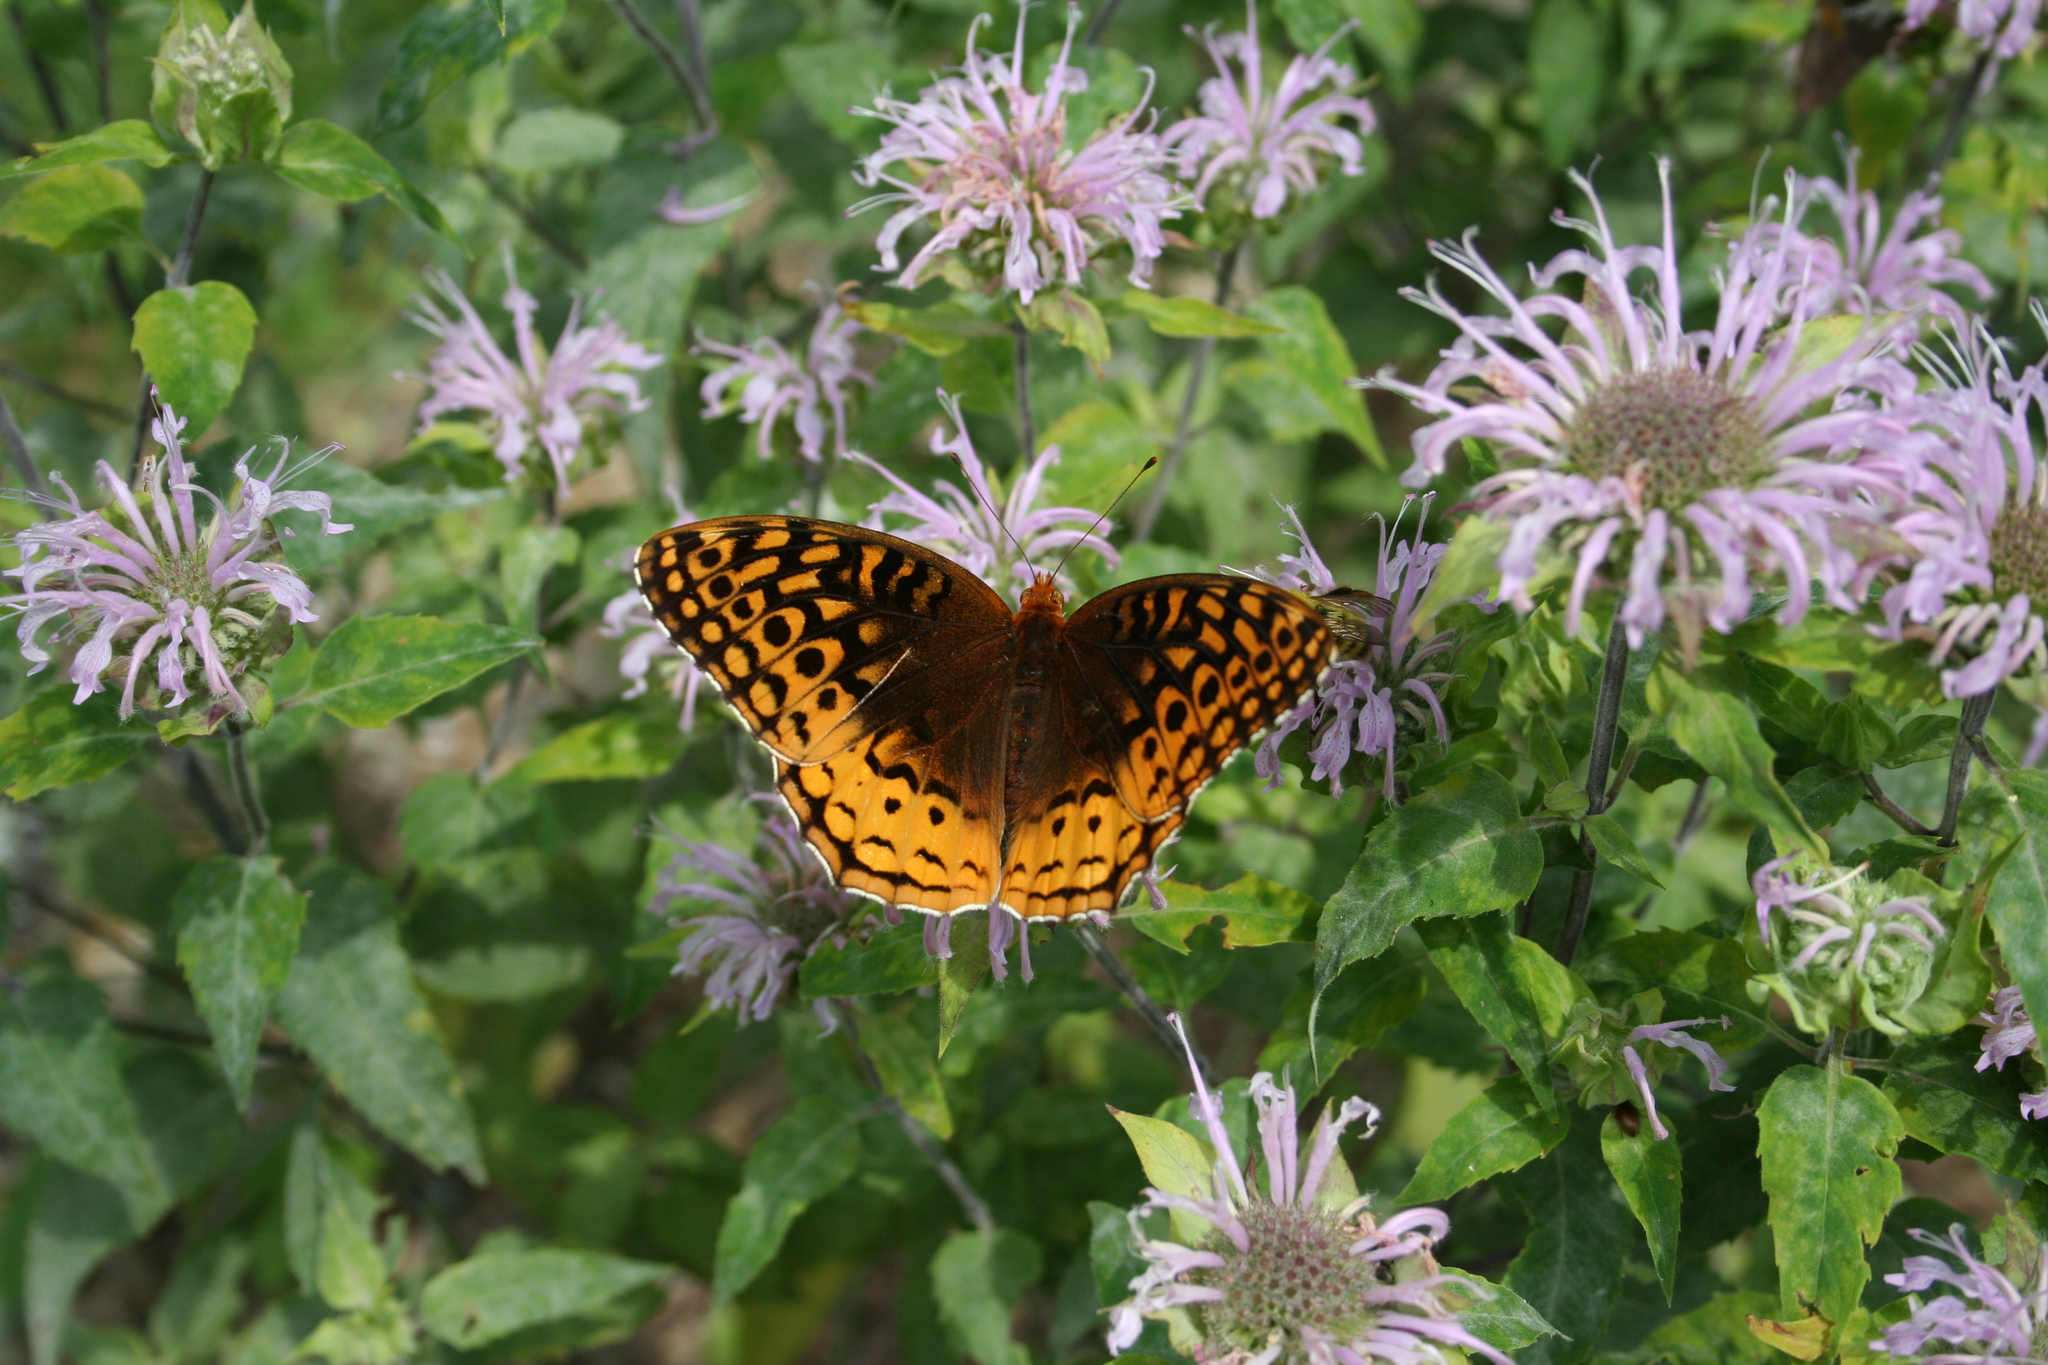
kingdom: Animalia
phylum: Arthropoda
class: Insecta
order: Lepidoptera
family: Nymphalidae
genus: Speyeria
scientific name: Speyeria cybele
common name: Great spangled fritillary
